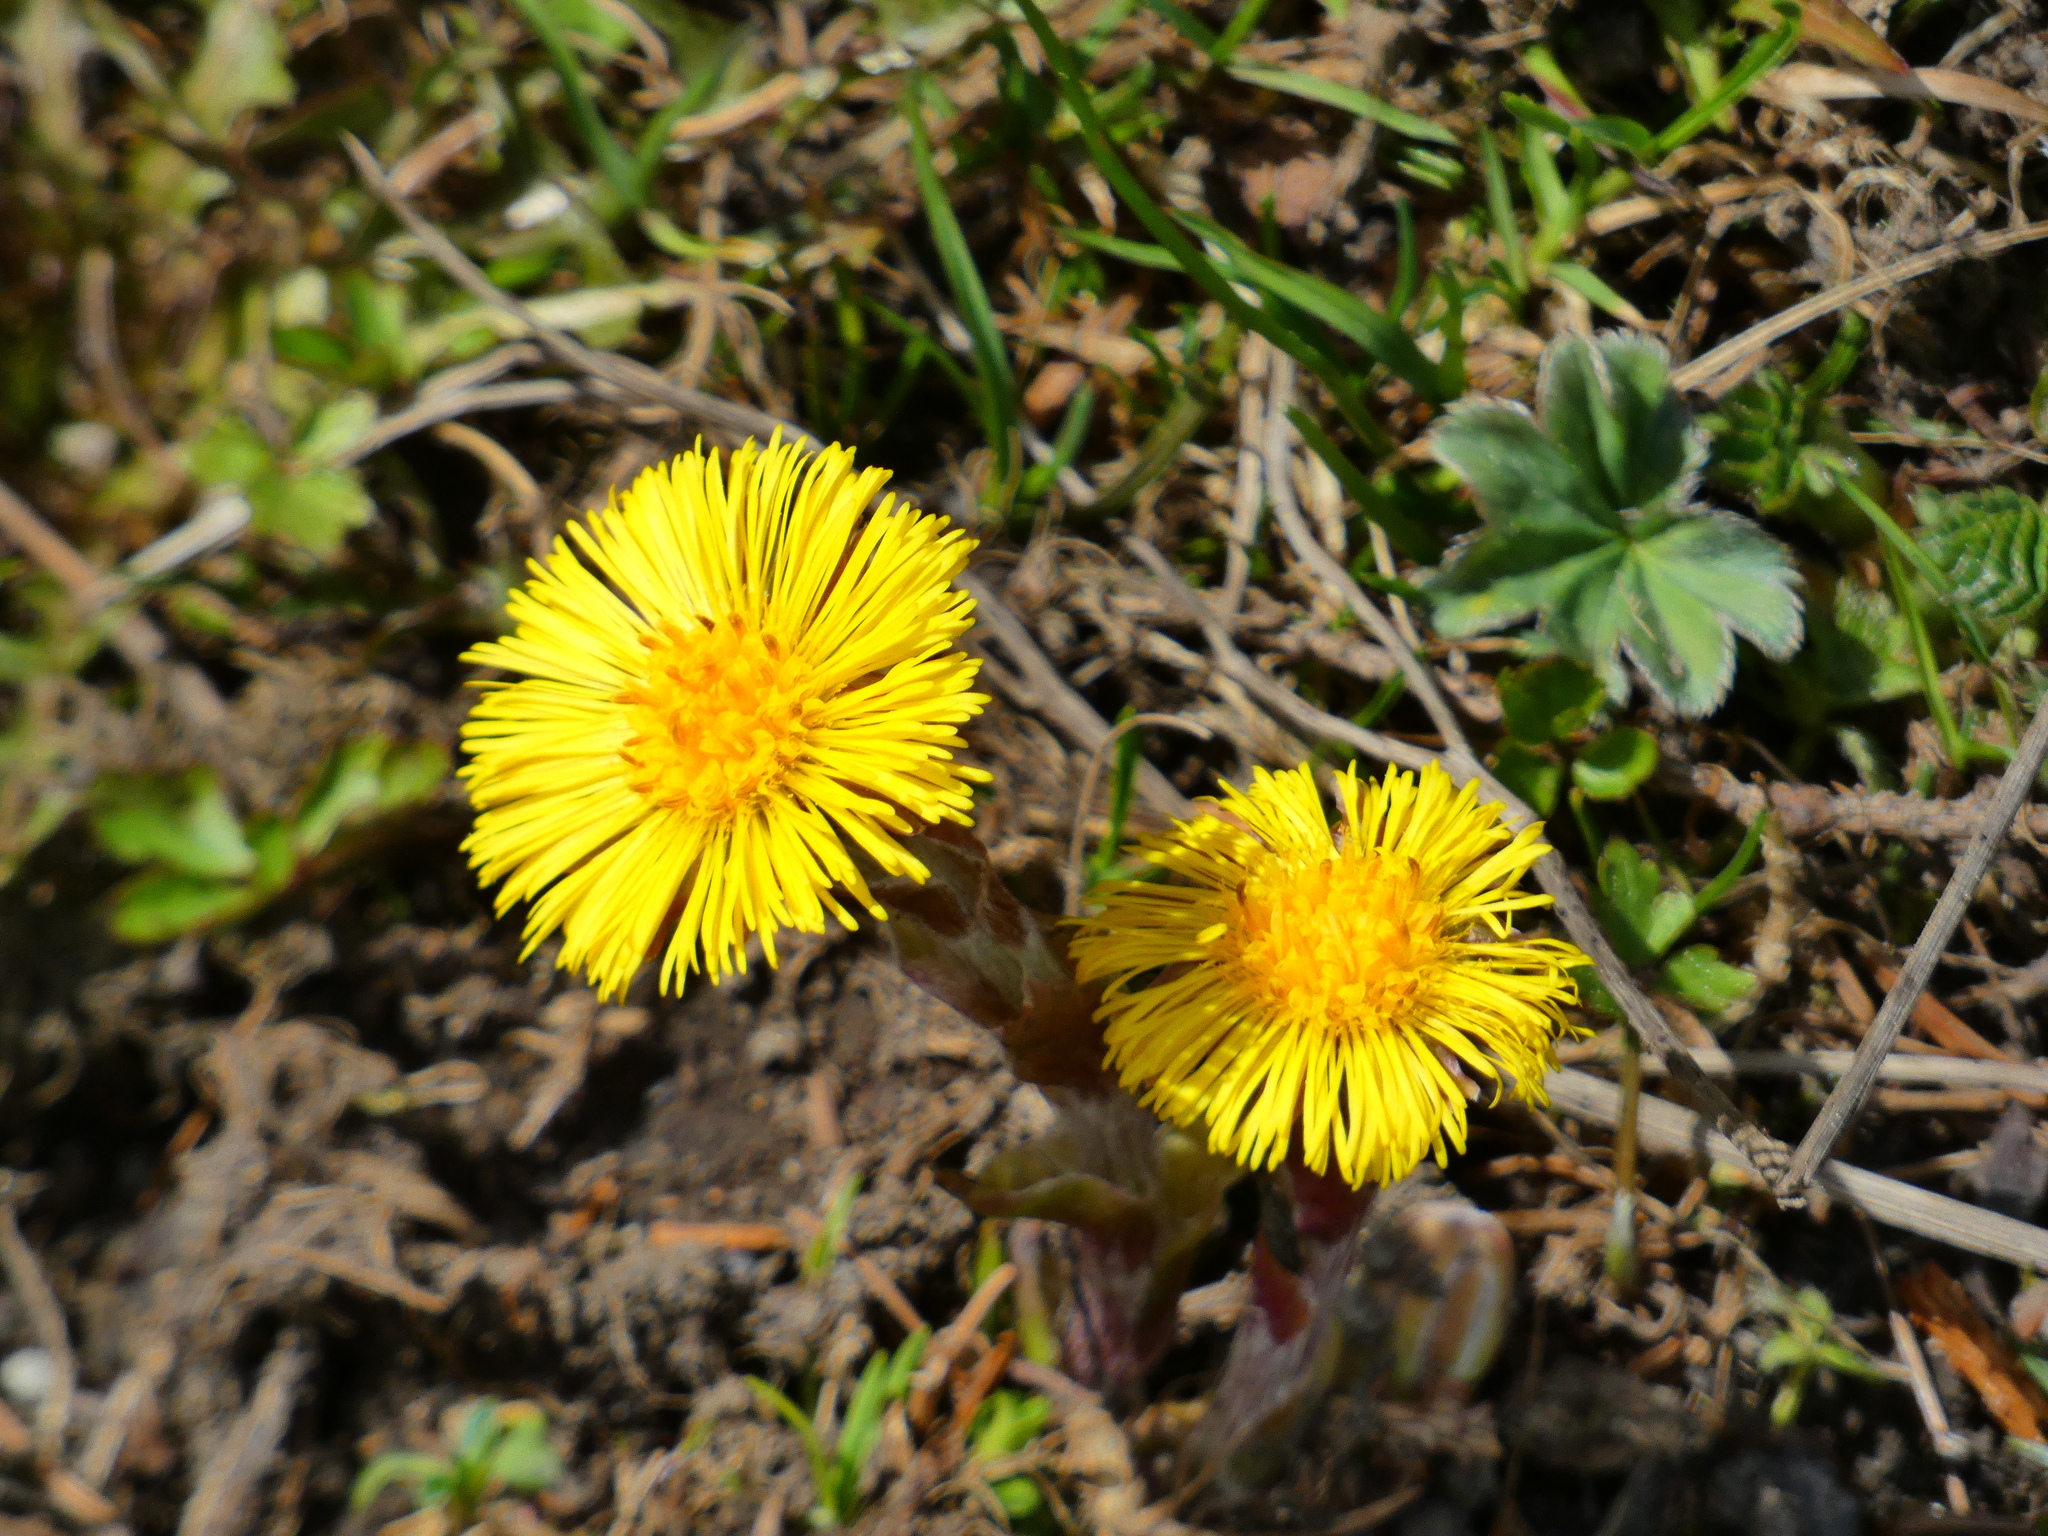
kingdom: Plantae
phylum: Tracheophyta
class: Magnoliopsida
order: Asterales
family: Asteraceae
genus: Tussilago
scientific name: Tussilago farfara
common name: Coltsfoot
